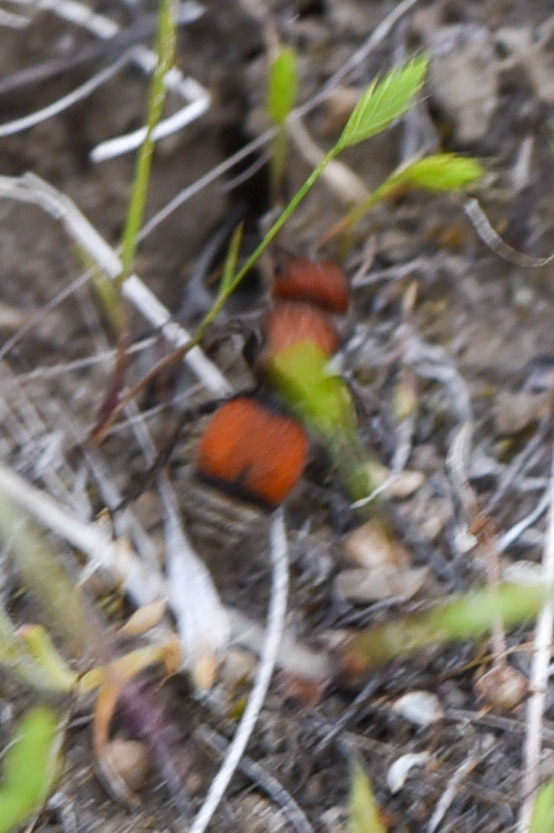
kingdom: Animalia
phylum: Arthropoda
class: Insecta
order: Hymenoptera
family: Mutillidae
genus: Pseudomethoca
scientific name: Pseudomethoca
